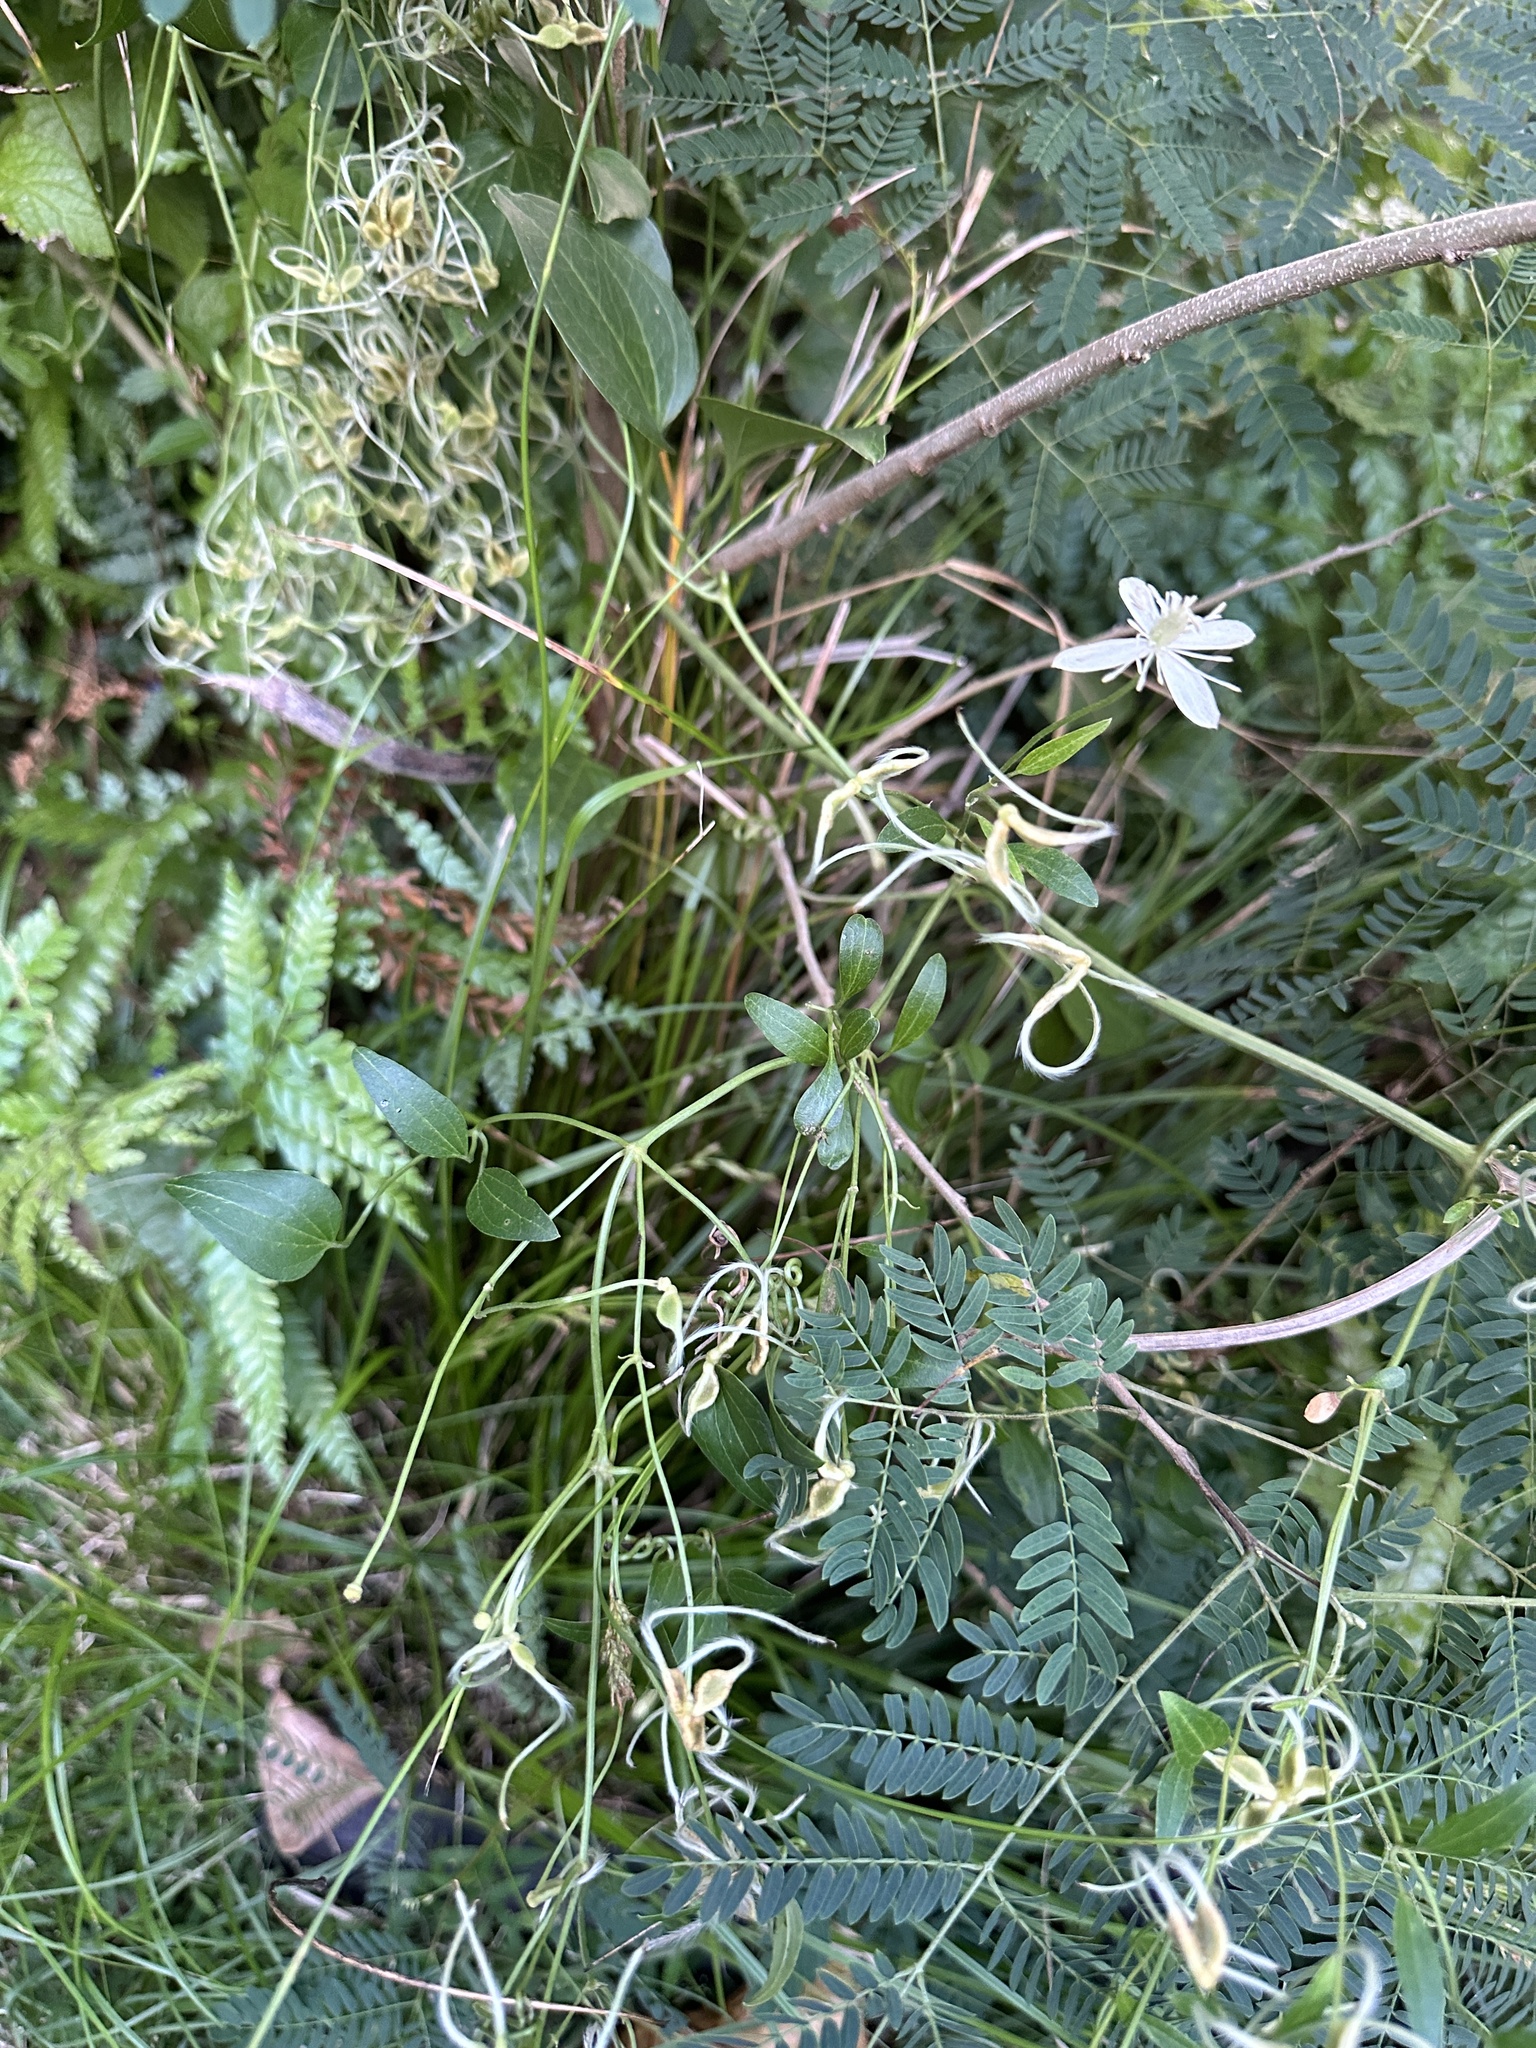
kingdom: Plantae
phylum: Tracheophyta
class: Magnoliopsida
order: Ranunculales
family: Ranunculaceae
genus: Clematis
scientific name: Clematis terniflora
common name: Sweet autumn clematis
